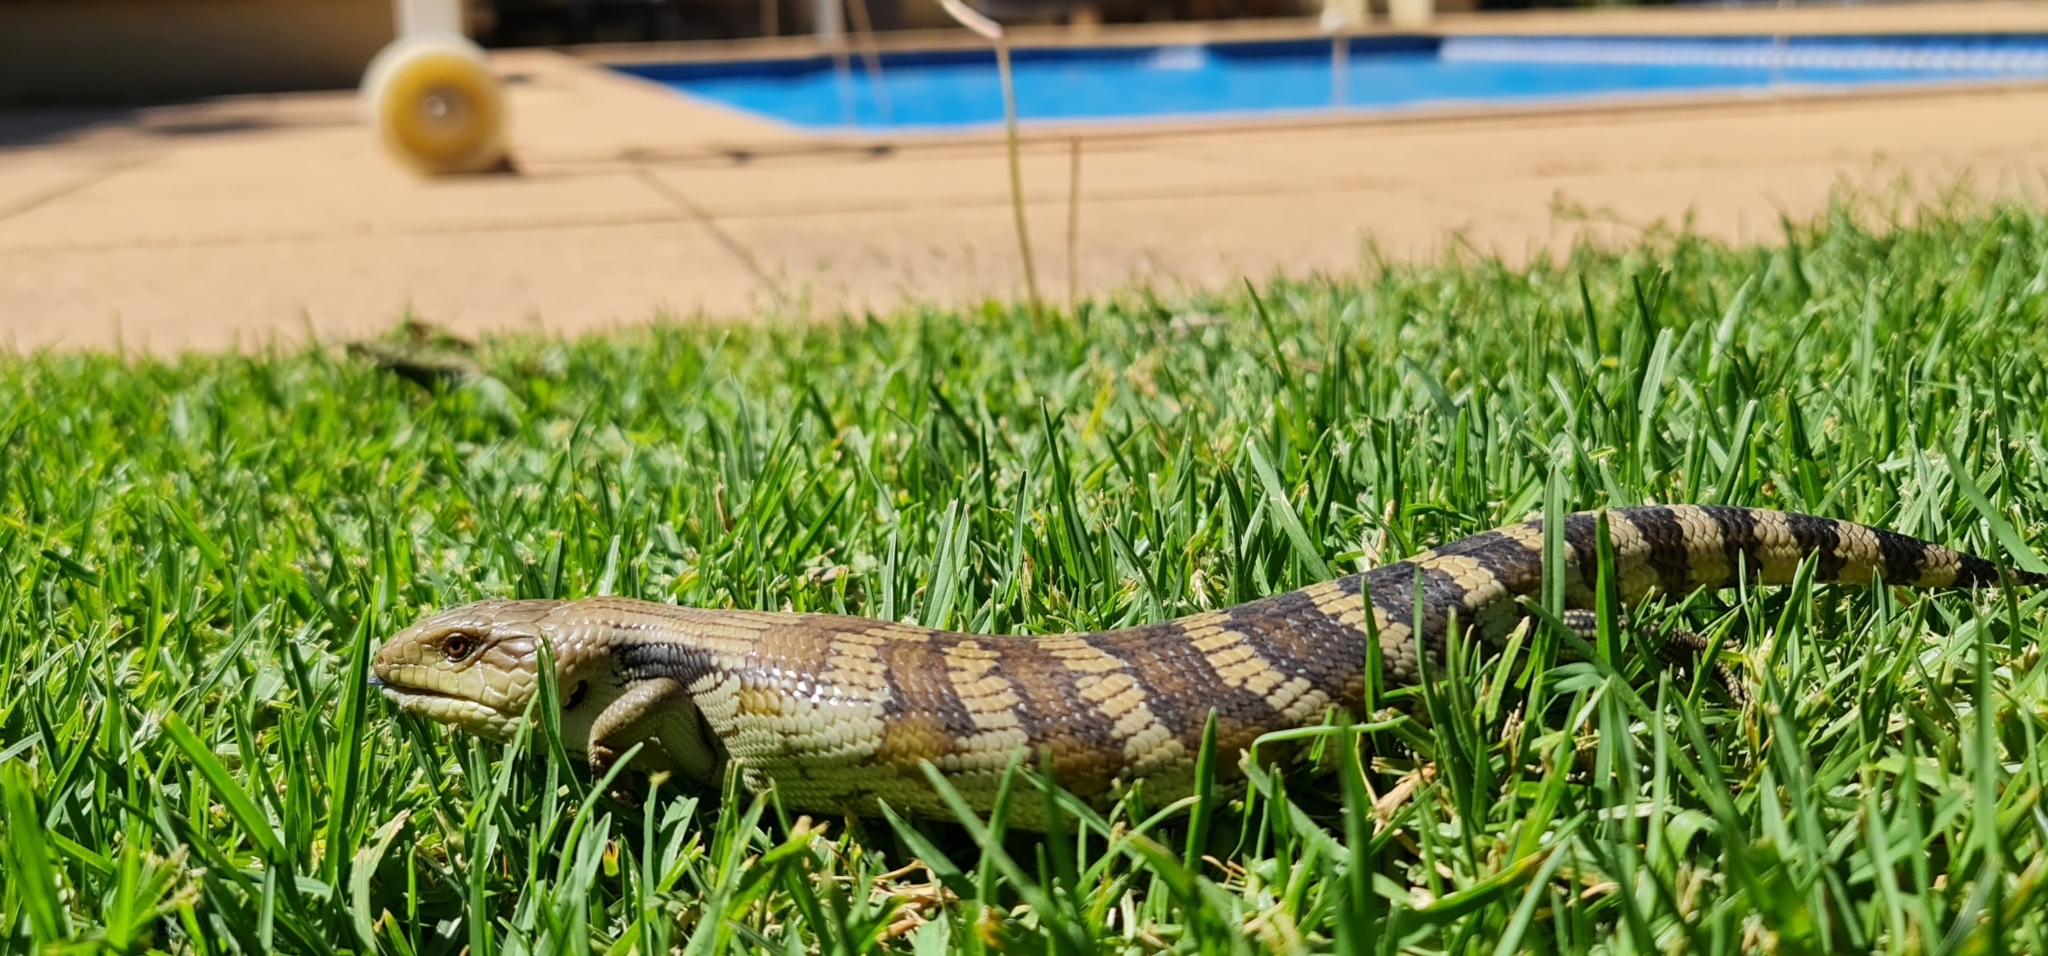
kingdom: Animalia
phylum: Chordata
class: Squamata
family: Scincidae
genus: Tiliqua
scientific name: Tiliqua scincoides
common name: Common bluetongue
